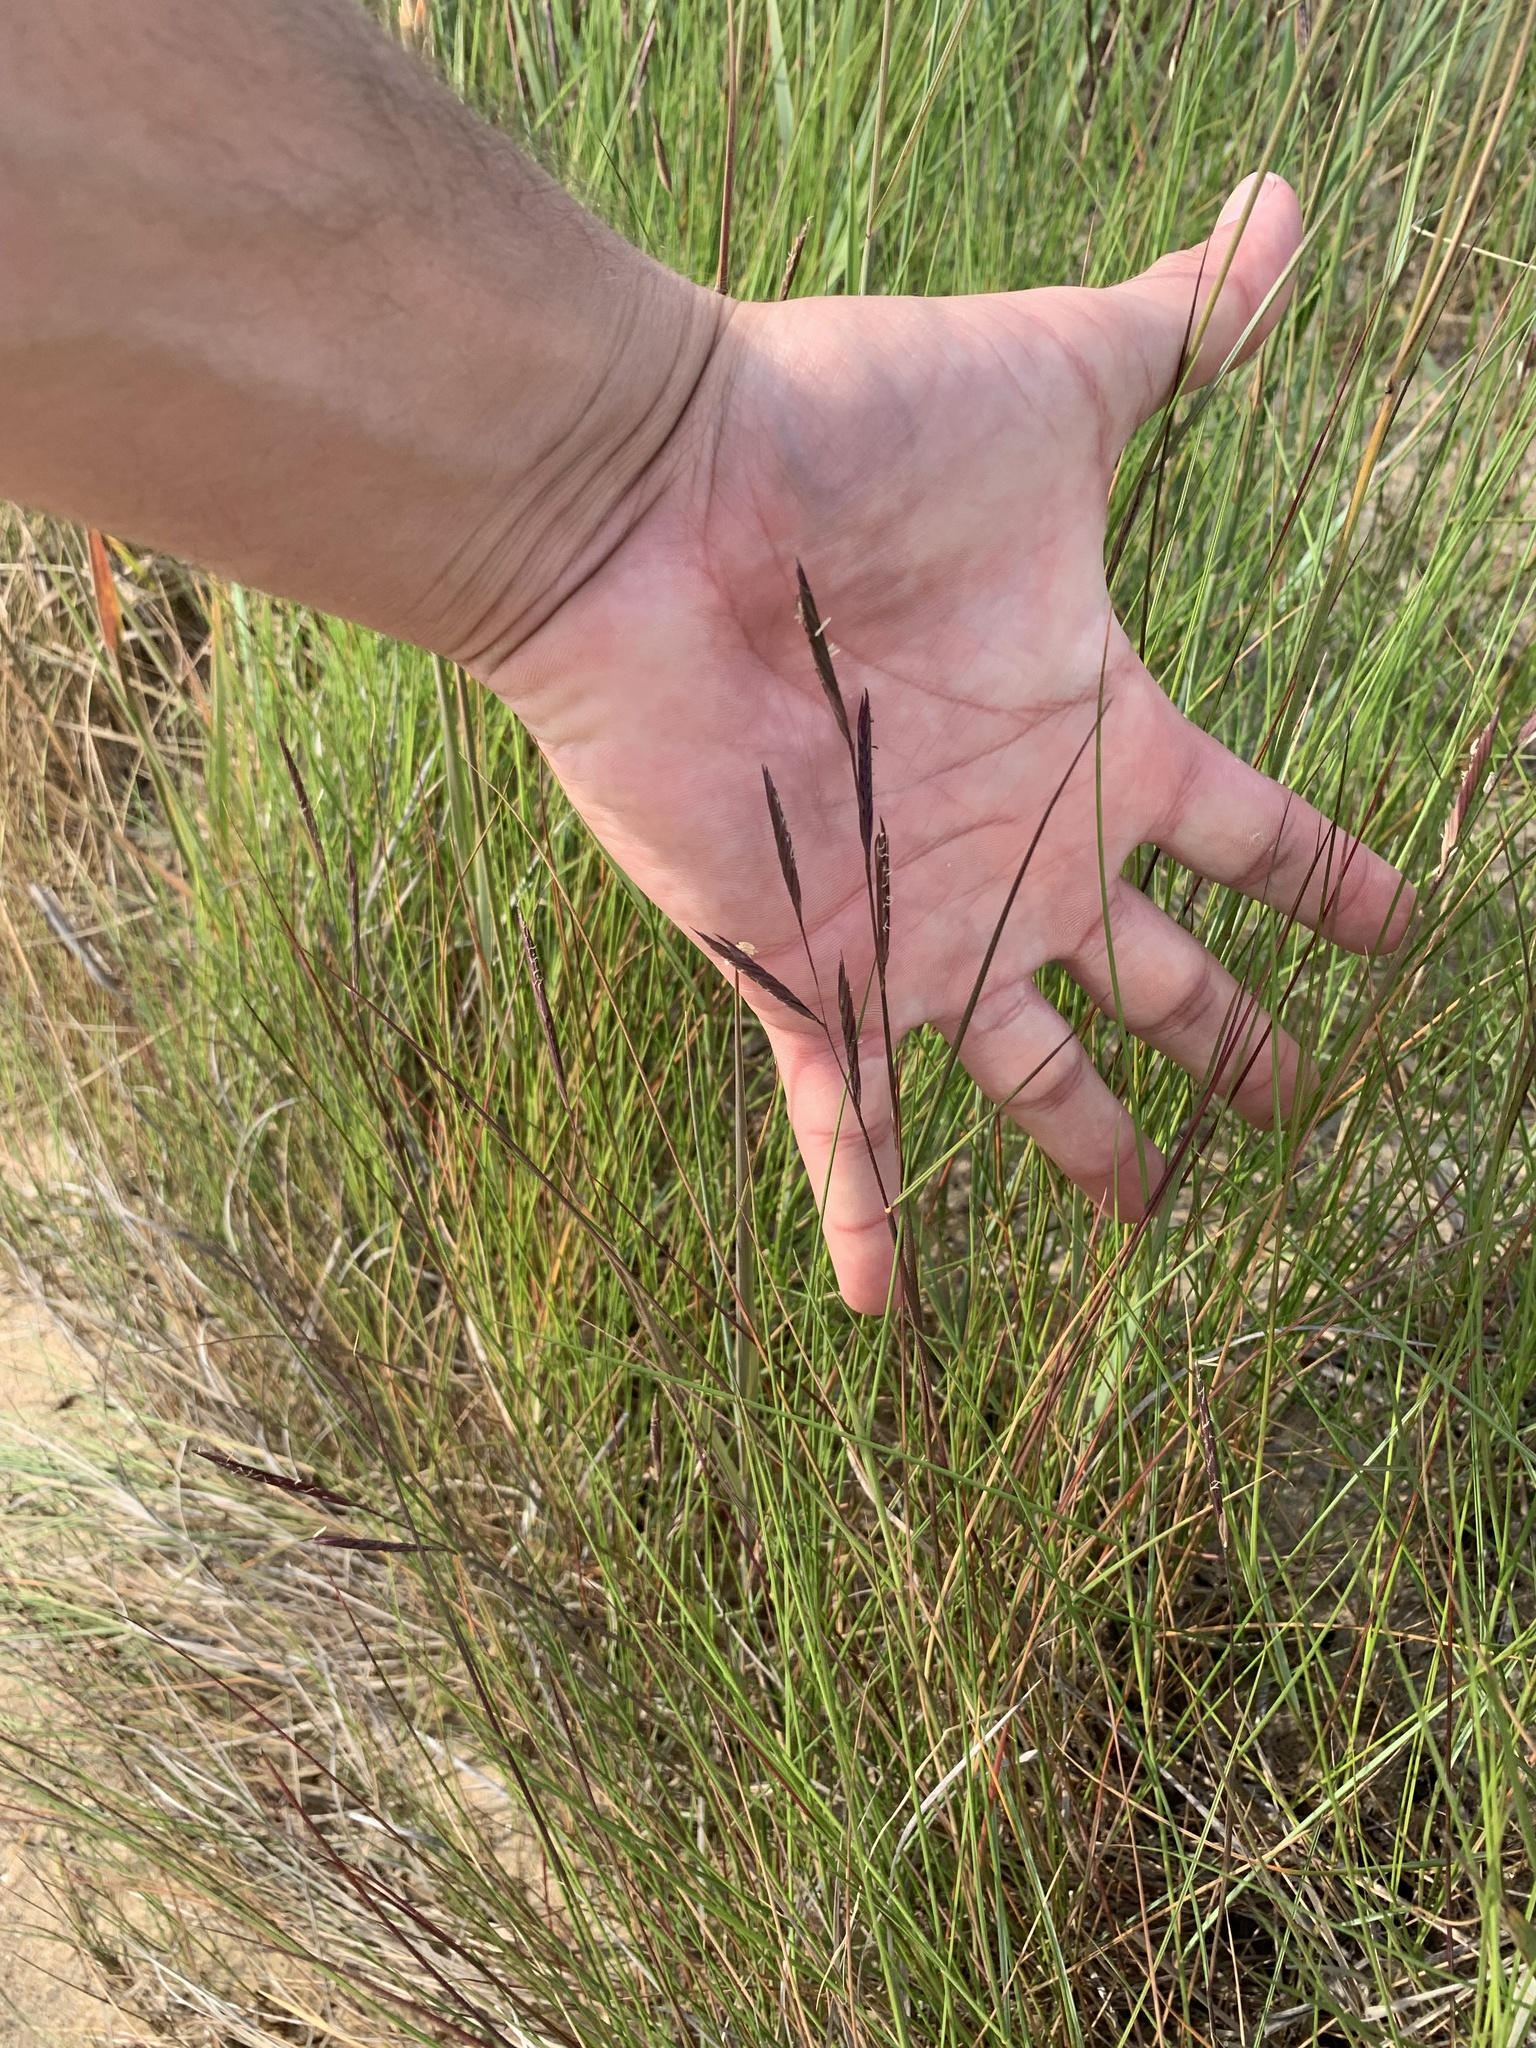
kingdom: Plantae
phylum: Tracheophyta
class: Liliopsida
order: Poales
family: Poaceae
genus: Sporobolus
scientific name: Sporobolus pumilus
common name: Highwater grass
